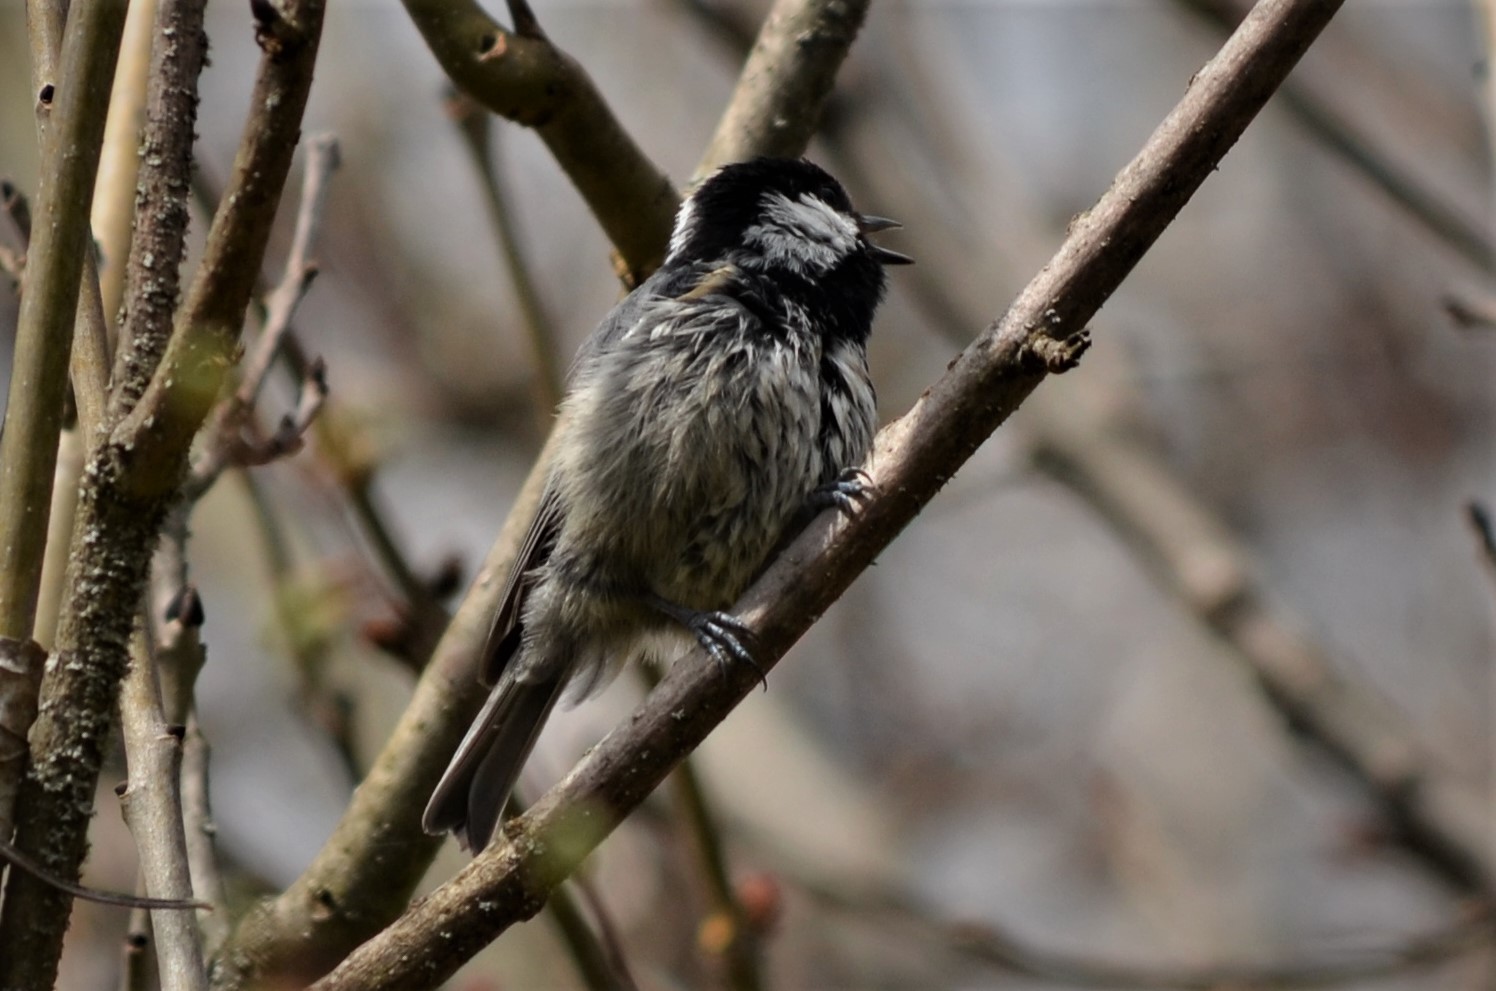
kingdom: Animalia
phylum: Chordata
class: Aves
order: Passeriformes
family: Paridae
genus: Periparus
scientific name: Periparus ater
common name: Coal tit
